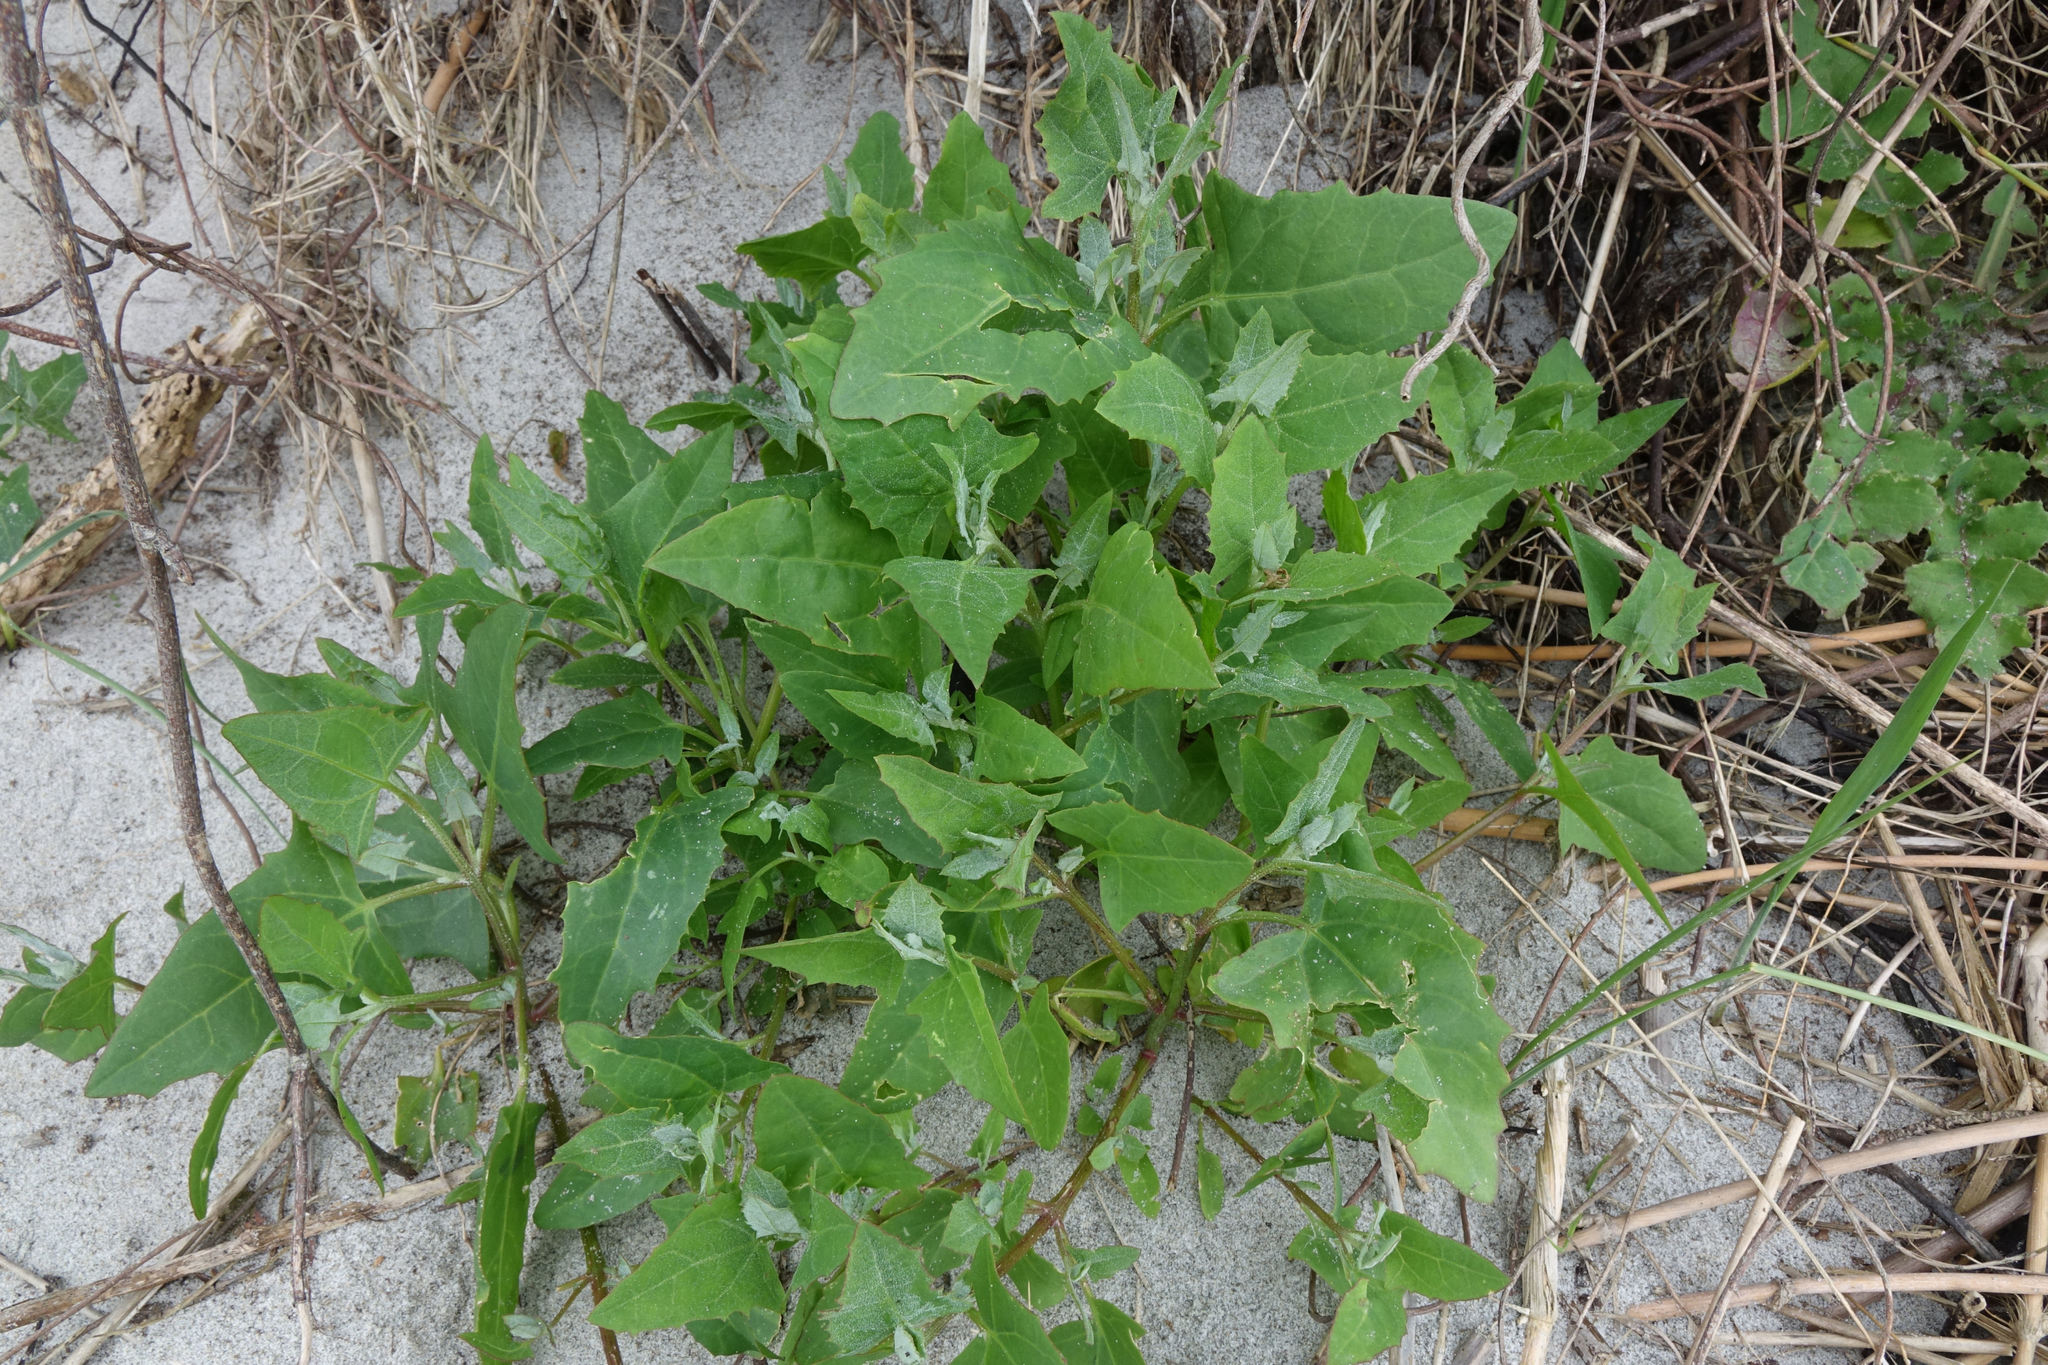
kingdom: Plantae
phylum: Tracheophyta
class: Magnoliopsida
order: Caryophyllales
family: Amaranthaceae
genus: Atriplex
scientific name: Atriplex calotheca
